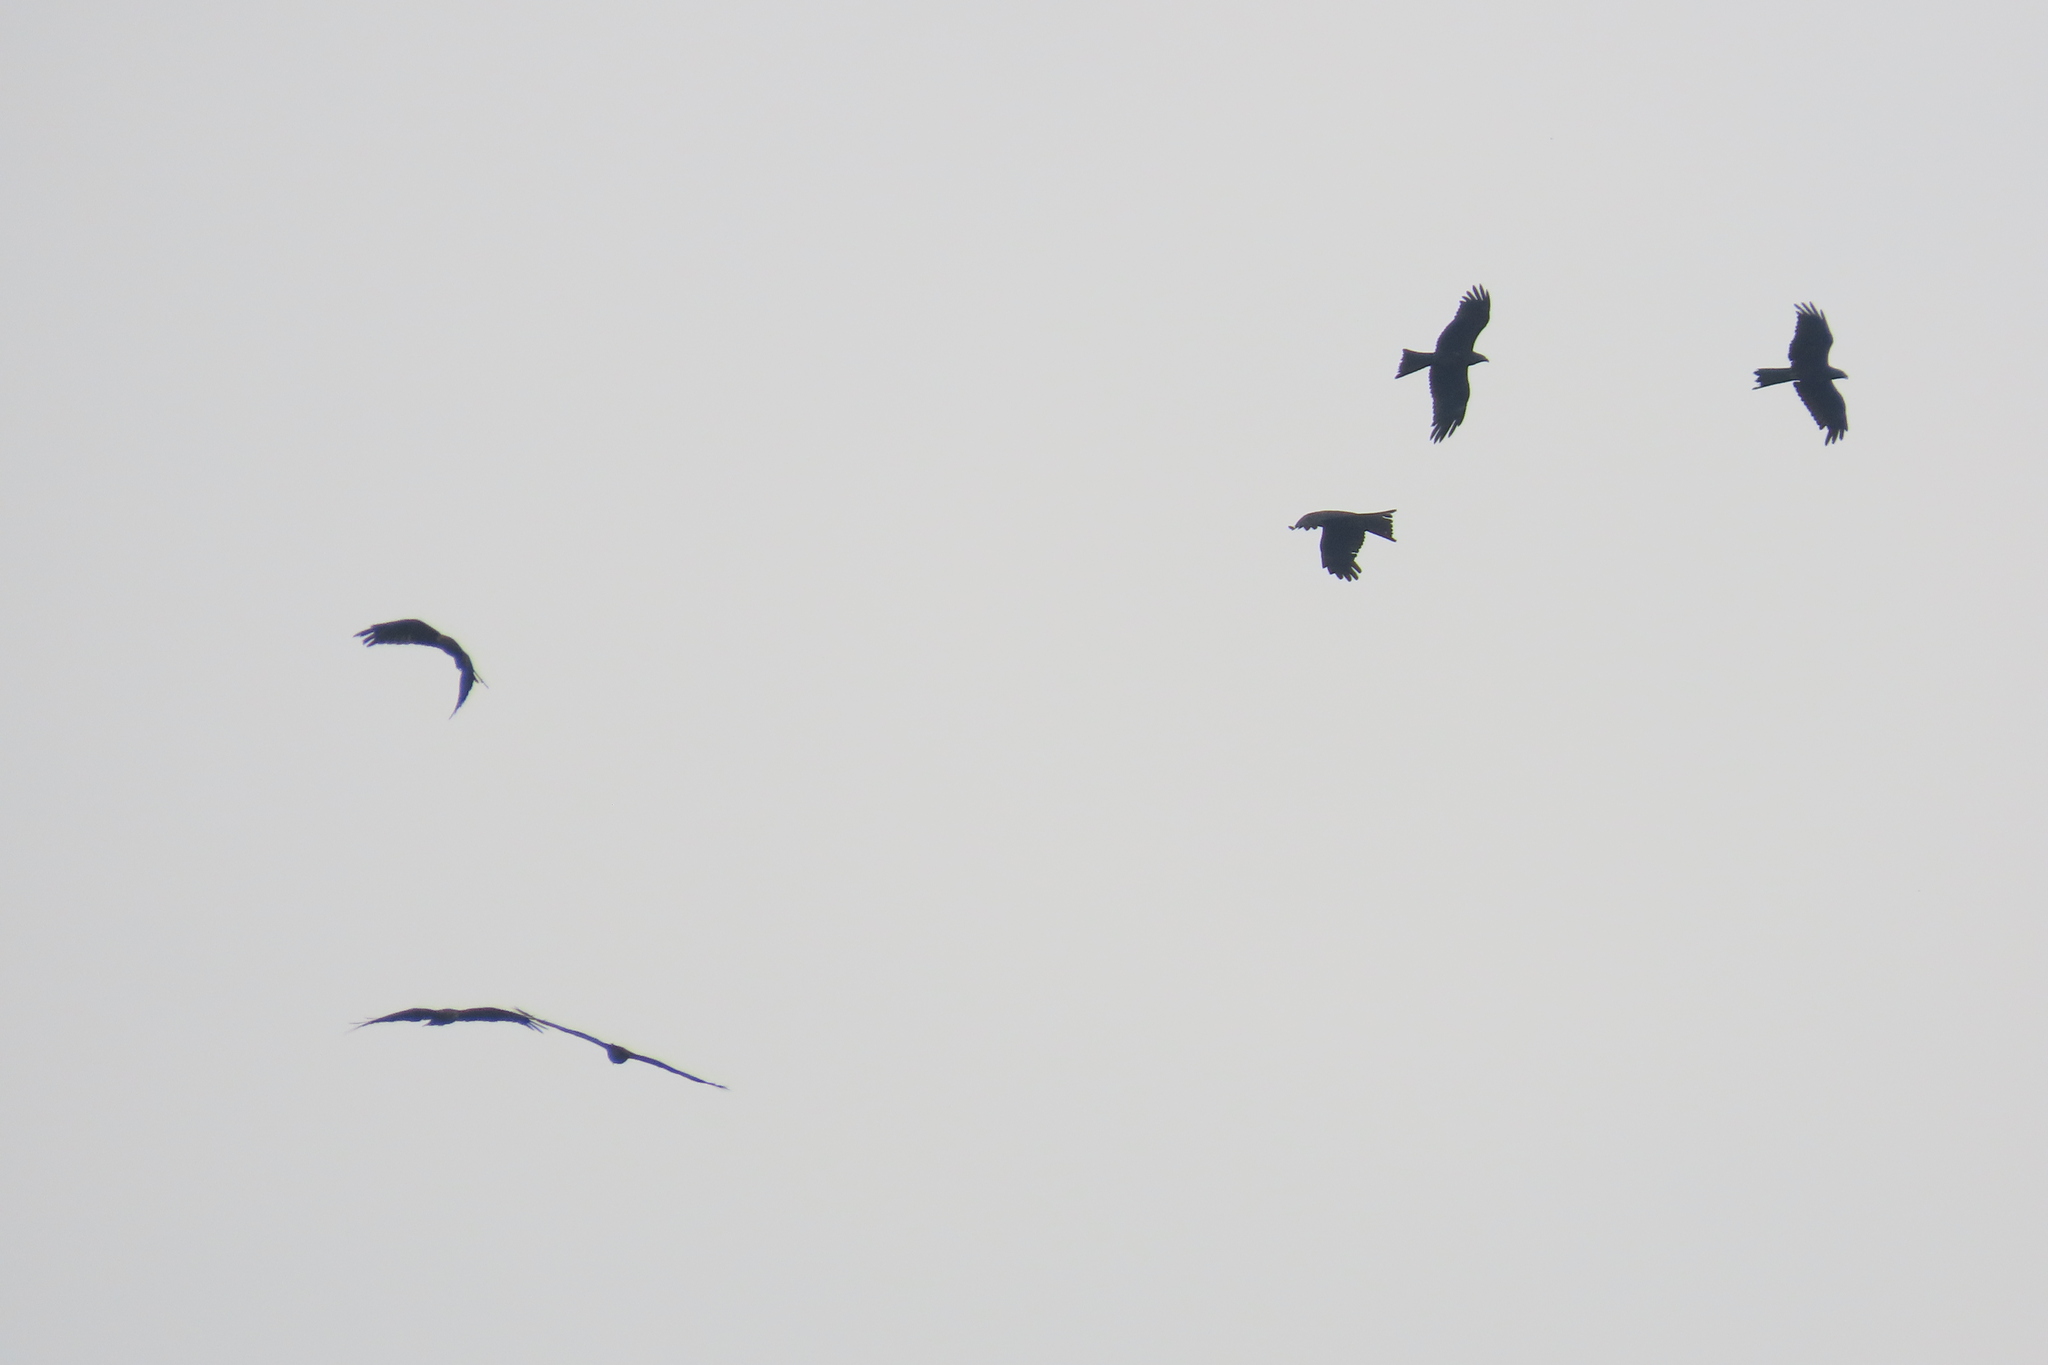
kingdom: Animalia
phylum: Chordata
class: Aves
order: Accipitriformes
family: Accipitridae
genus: Milvus
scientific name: Milvus migrans
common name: Black kite
